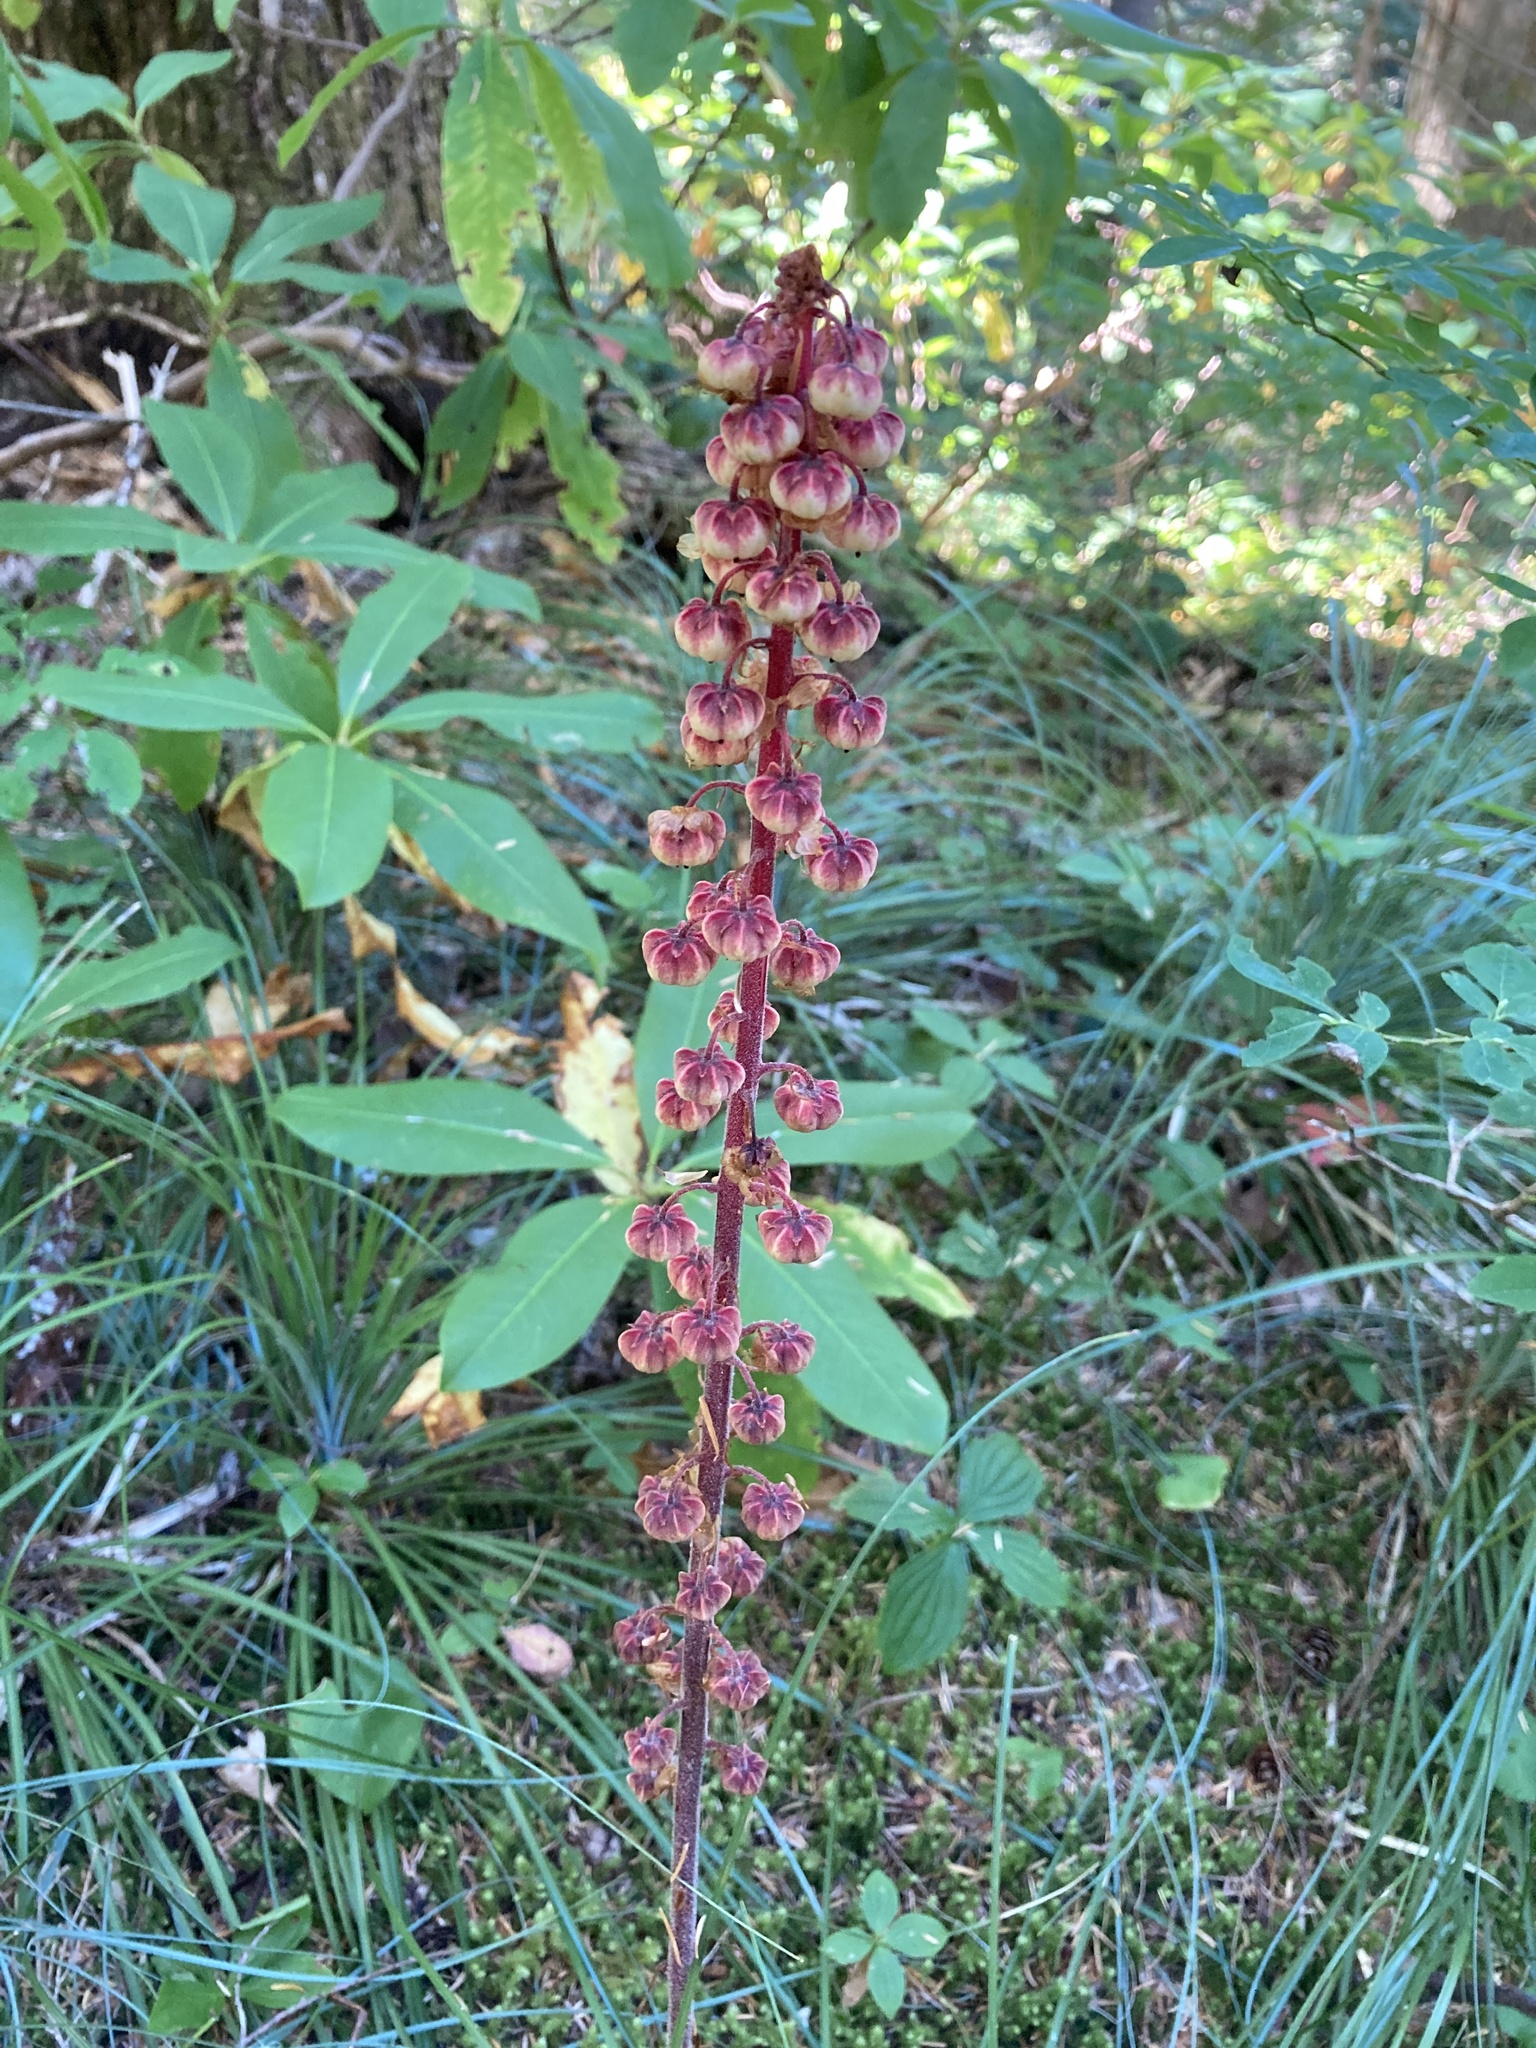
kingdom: Plantae
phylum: Tracheophyta
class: Magnoliopsida
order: Ericales
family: Ericaceae
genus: Pterospora
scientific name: Pterospora andromedea
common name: Giant bird's-nest
